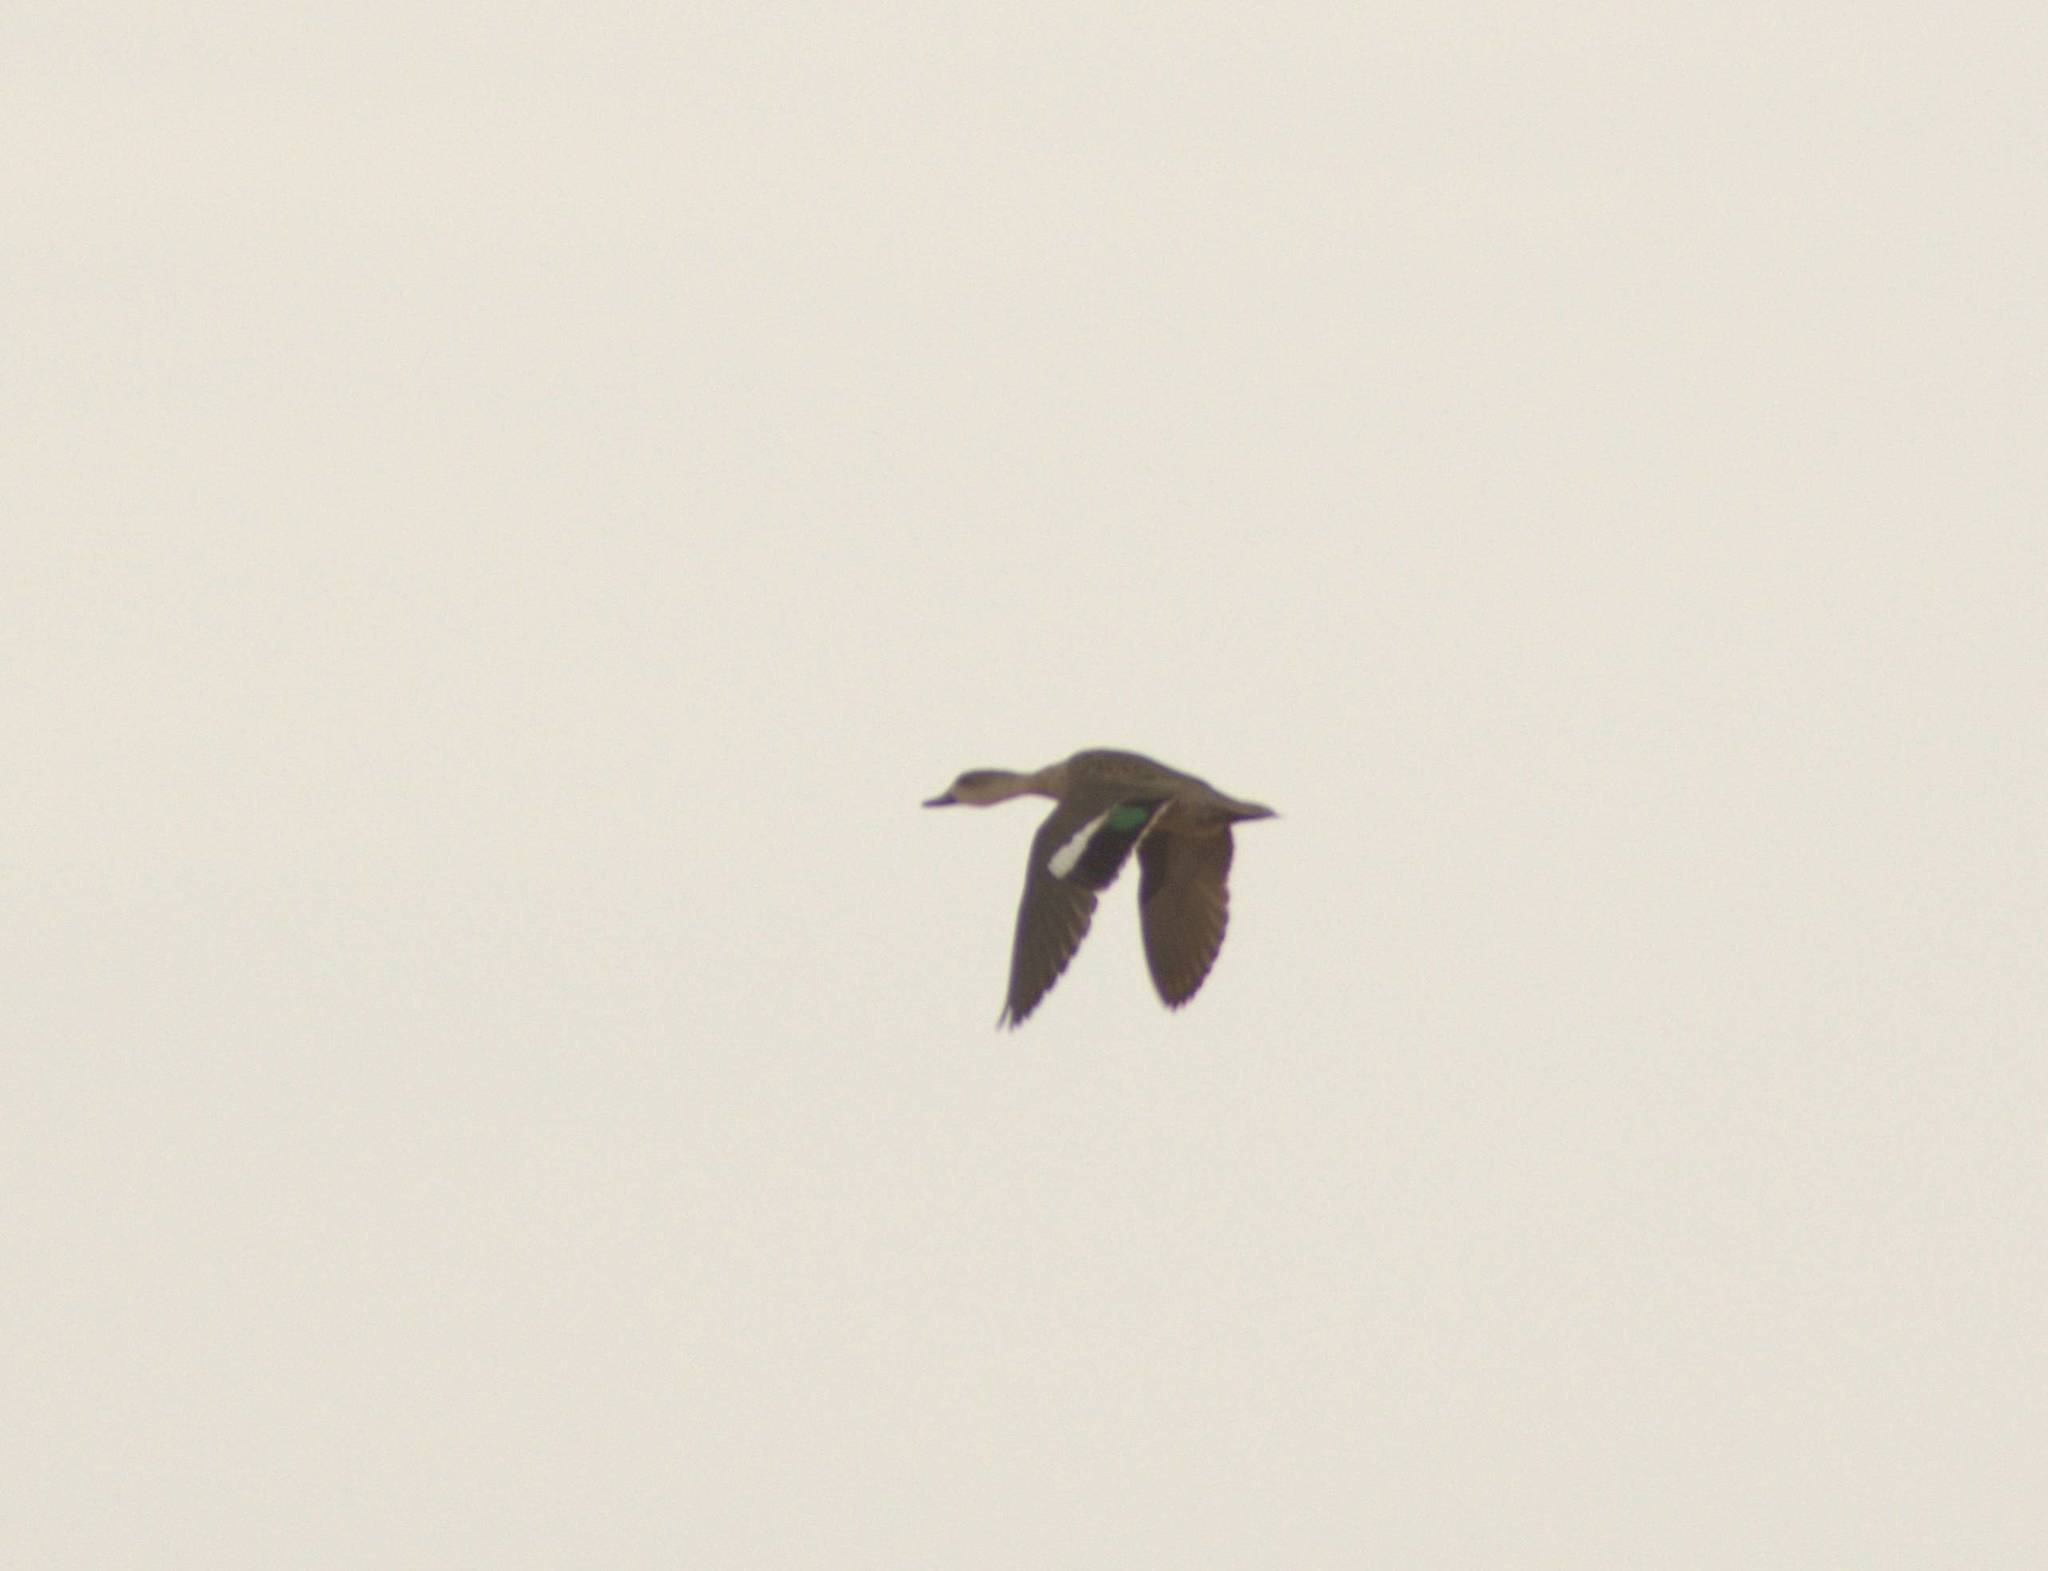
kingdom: Animalia
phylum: Chordata
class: Aves
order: Anseriformes
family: Anatidae
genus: Anas
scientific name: Anas gracilis
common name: Grey teal
